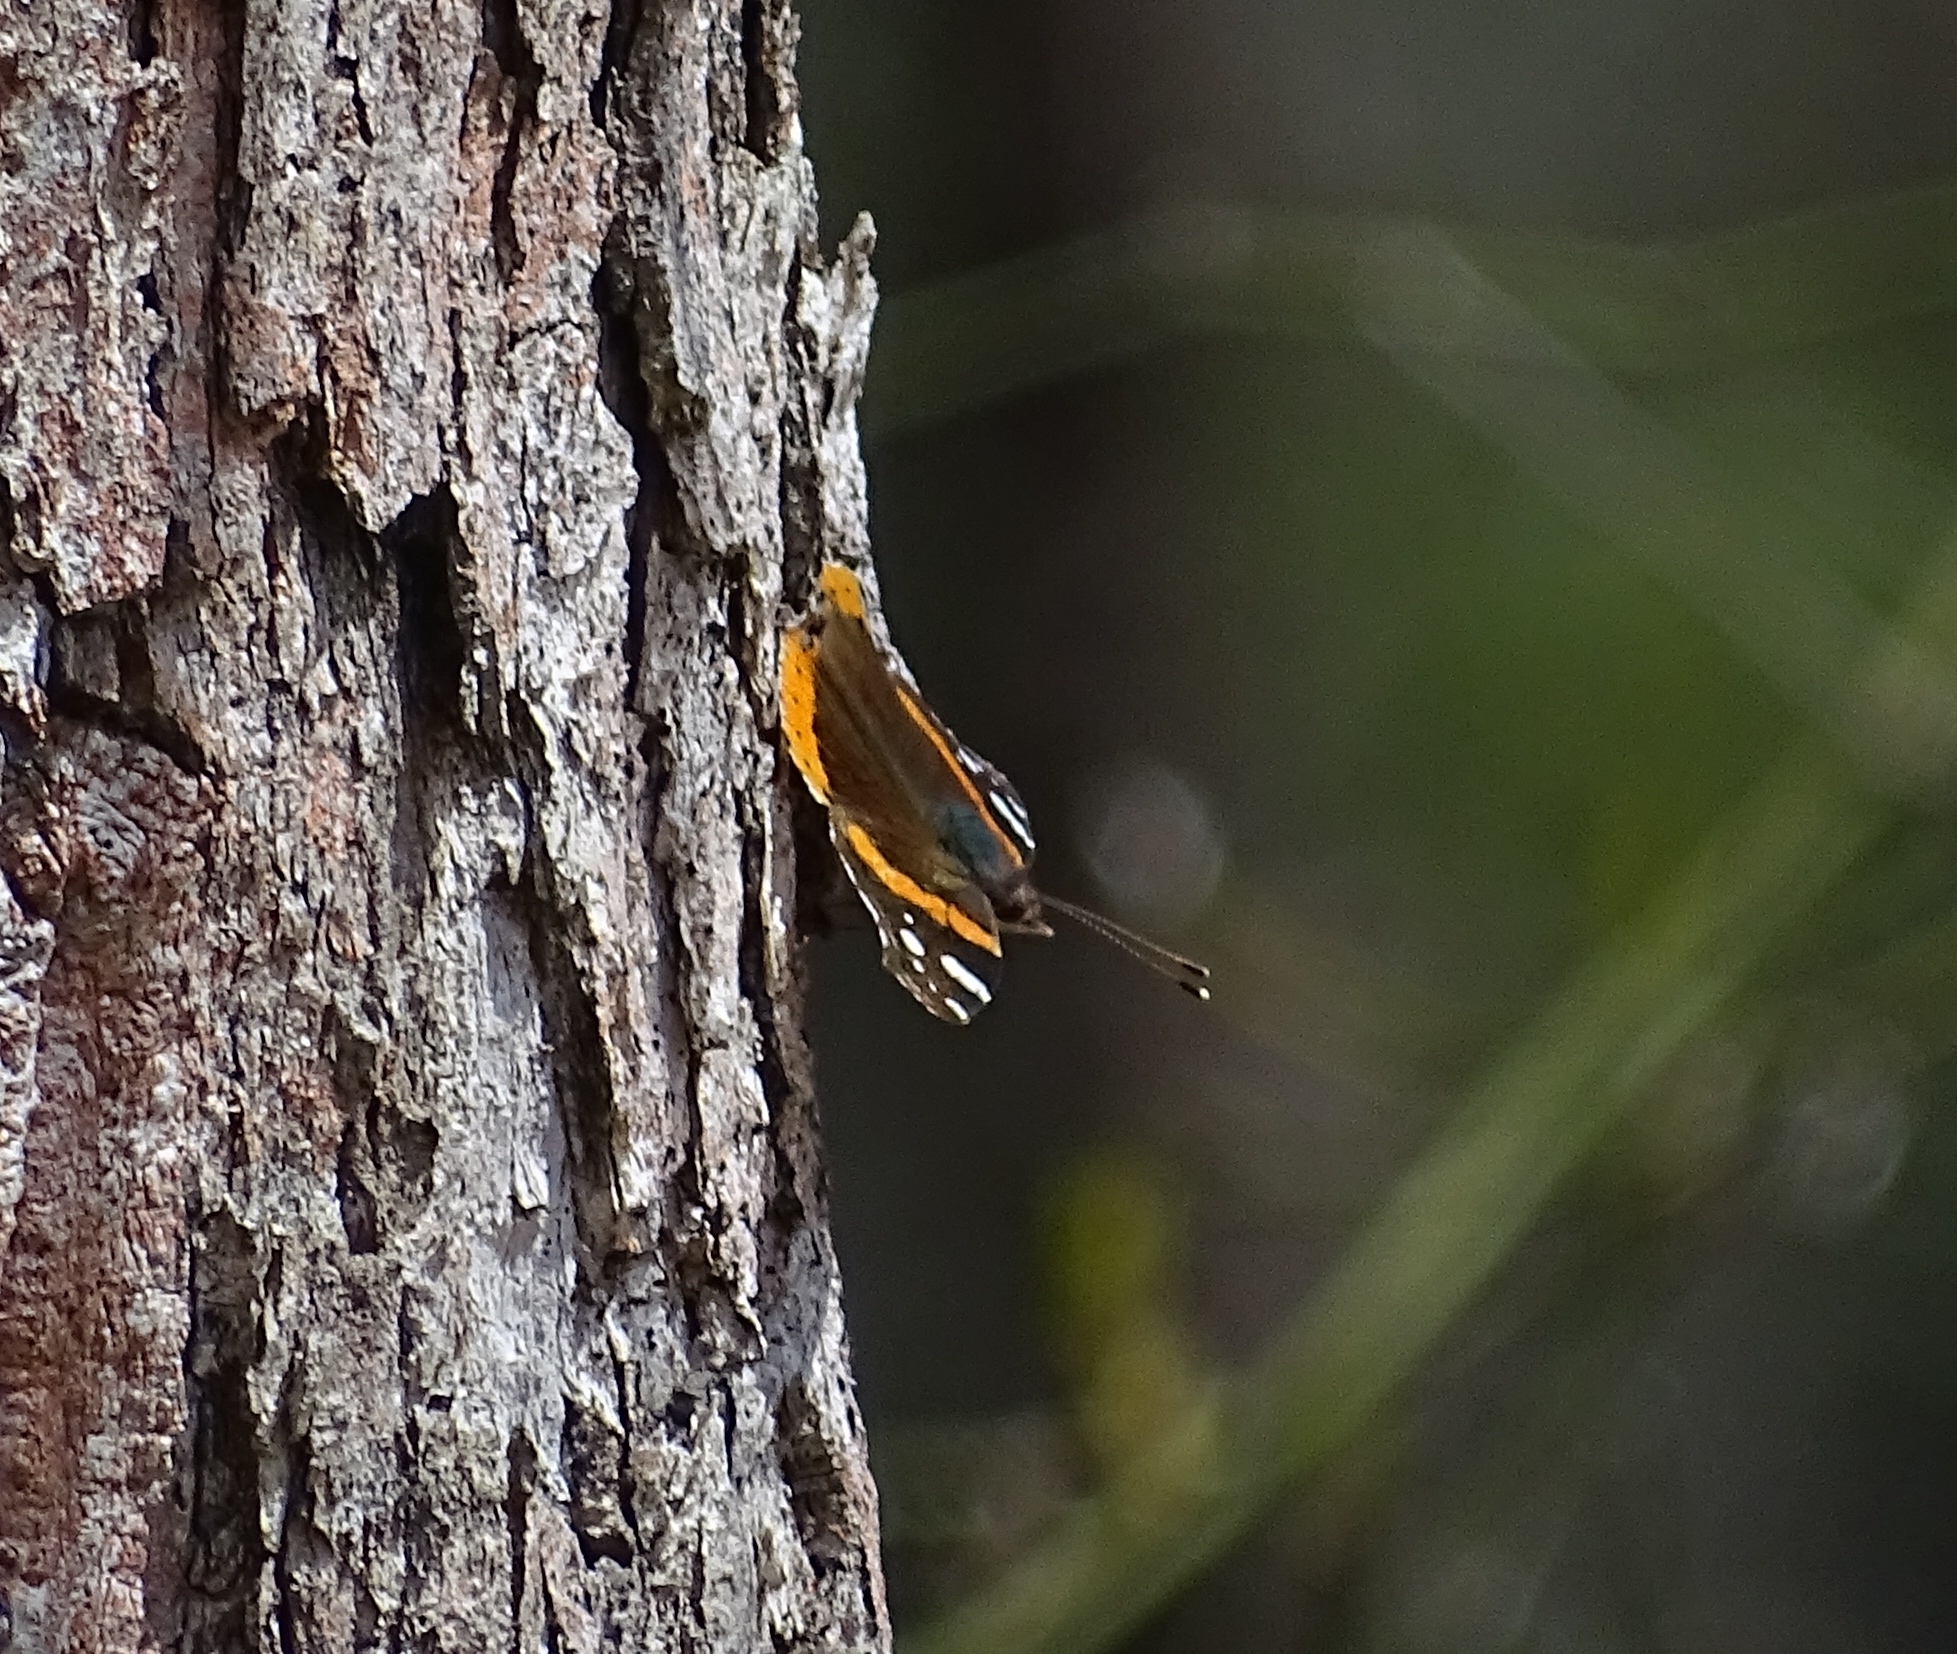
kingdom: Animalia
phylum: Arthropoda
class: Insecta
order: Lepidoptera
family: Nymphalidae
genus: Vanessa
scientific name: Vanessa atalanta
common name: Red admiral
